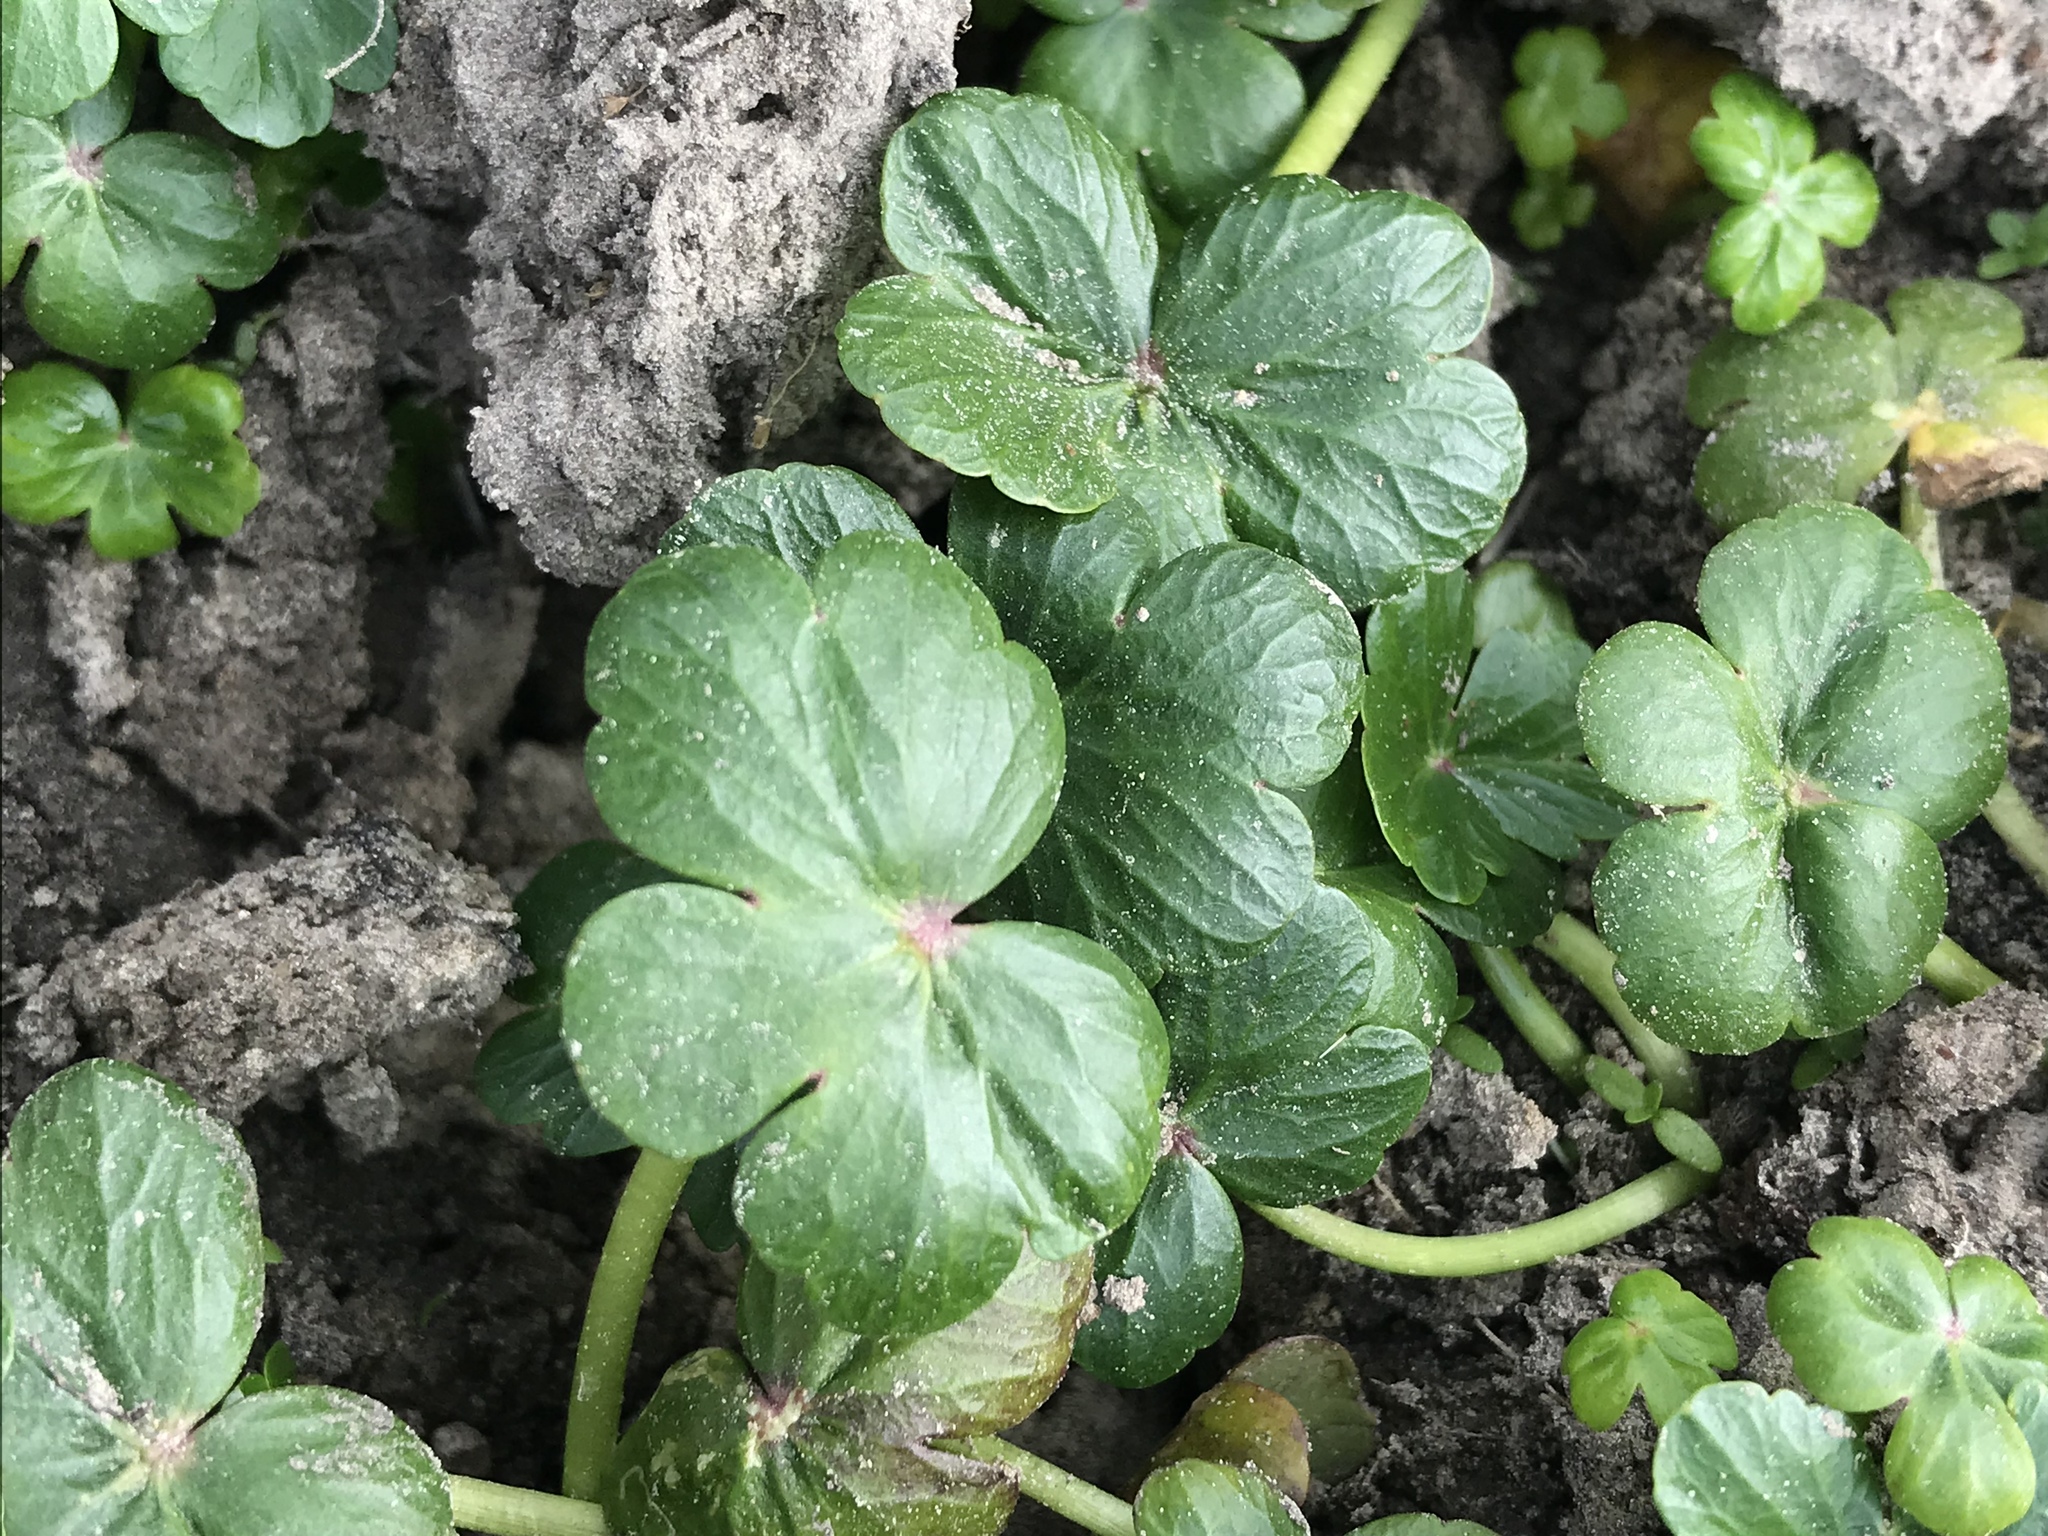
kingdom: Plantae
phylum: Tracheophyta
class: Magnoliopsida
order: Apiales
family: Araliaceae
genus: Hydrocotyle
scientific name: Hydrocotyle ranunculoides
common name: Floating pennywort
